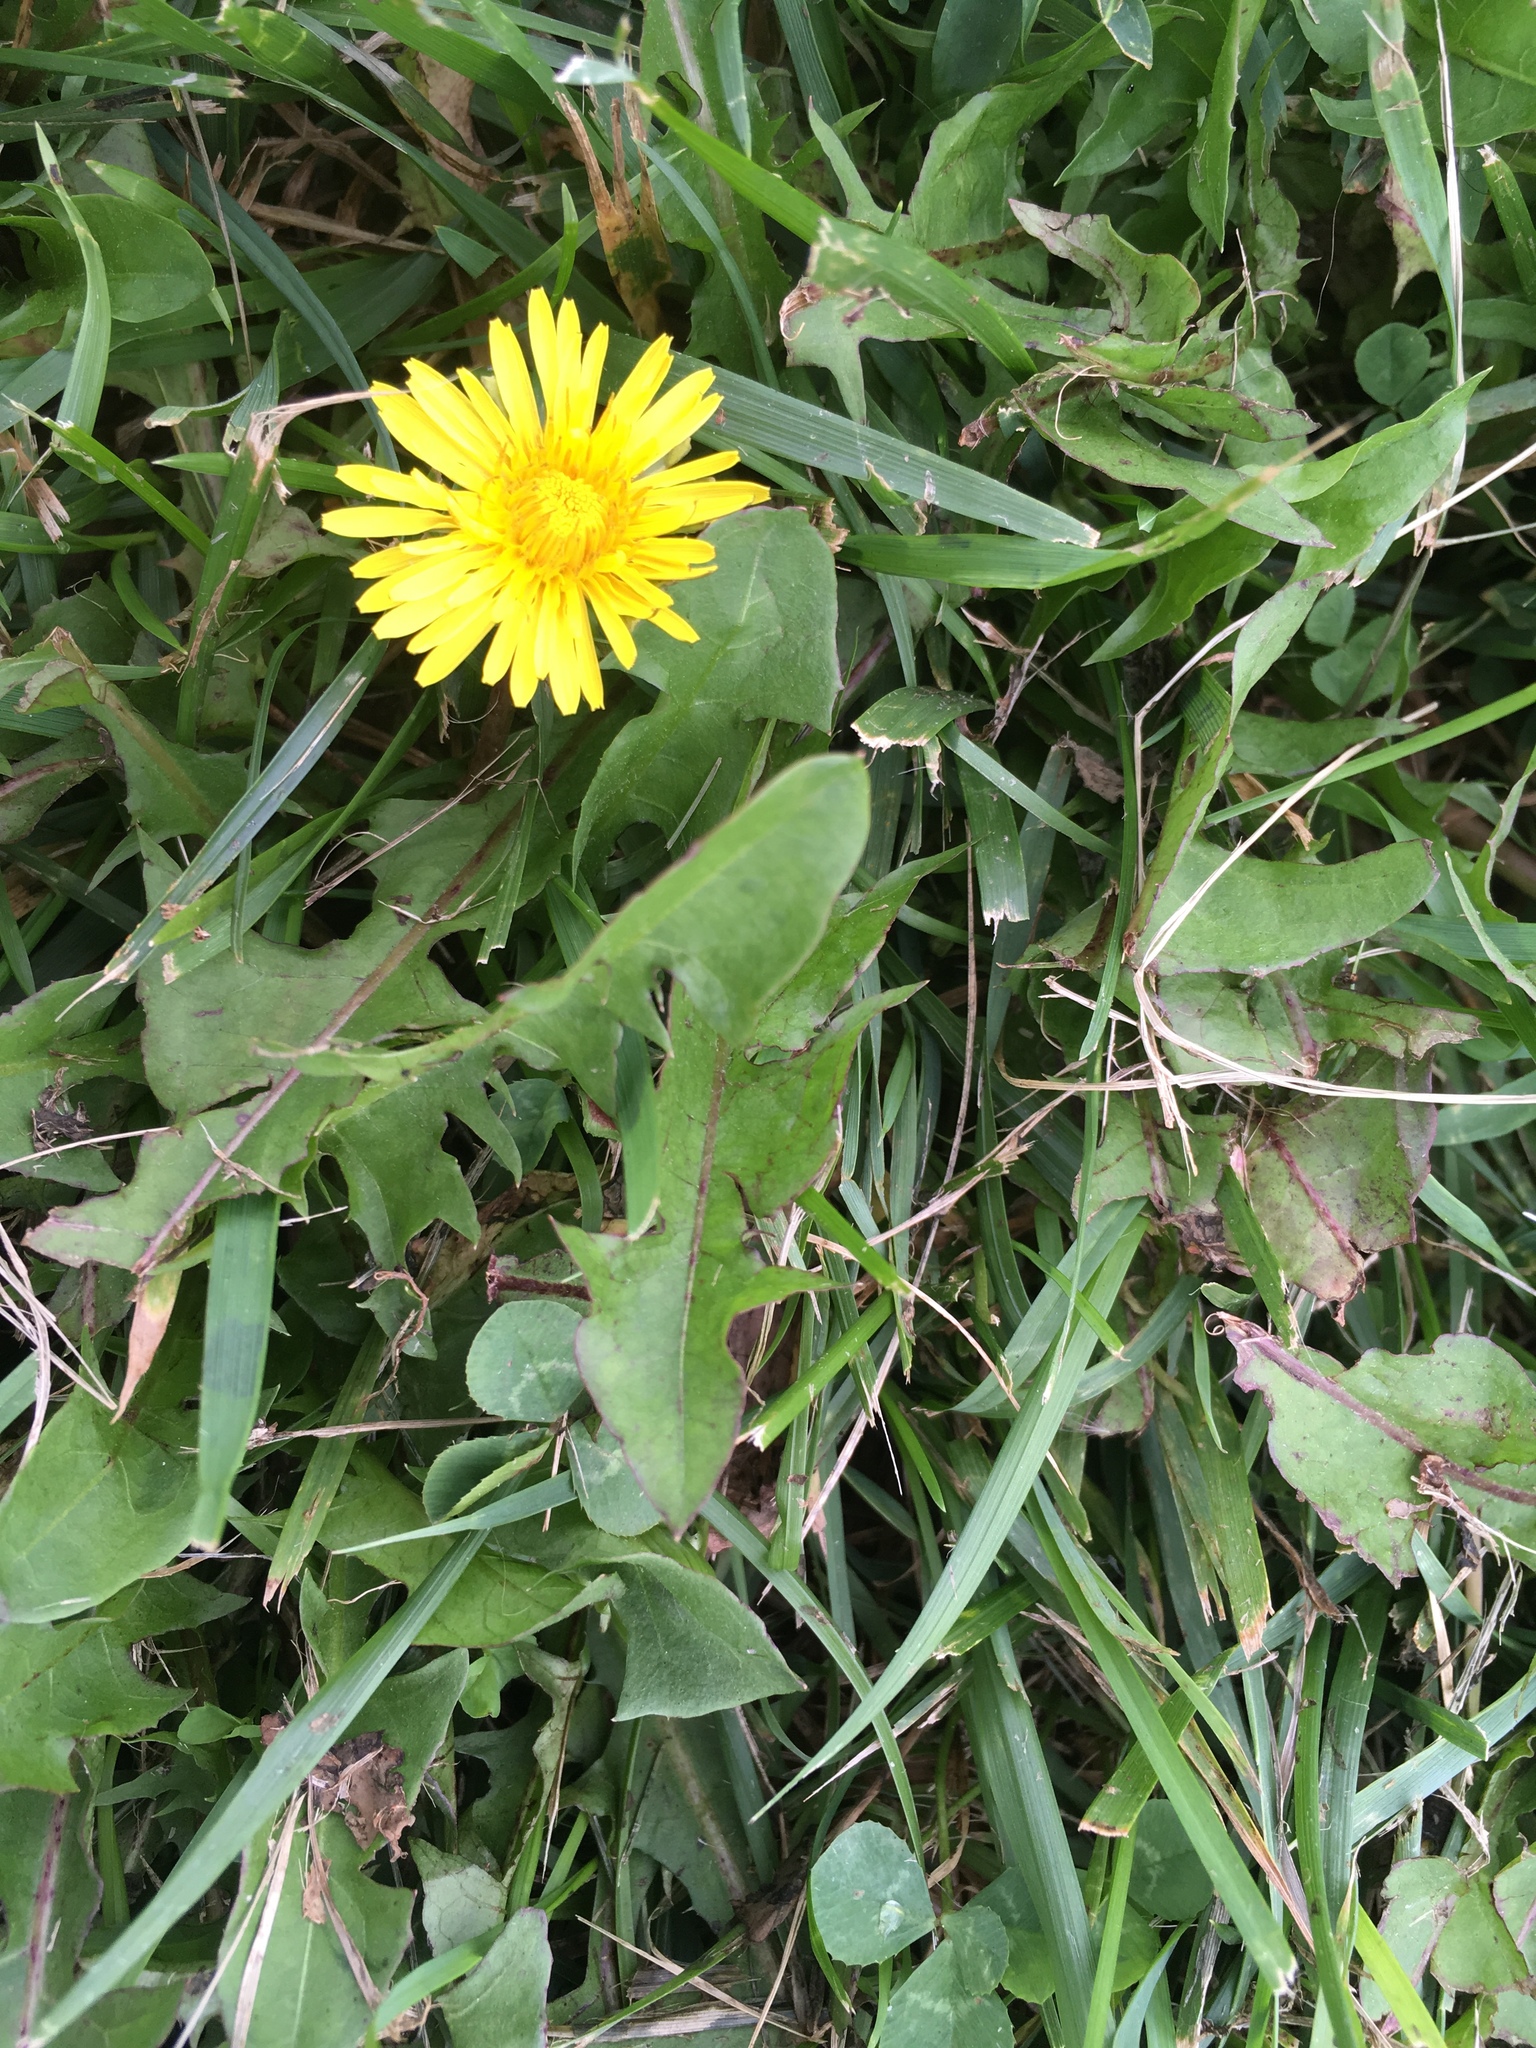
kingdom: Plantae
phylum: Tracheophyta
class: Magnoliopsida
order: Asterales
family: Asteraceae
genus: Taraxacum
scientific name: Taraxacum
